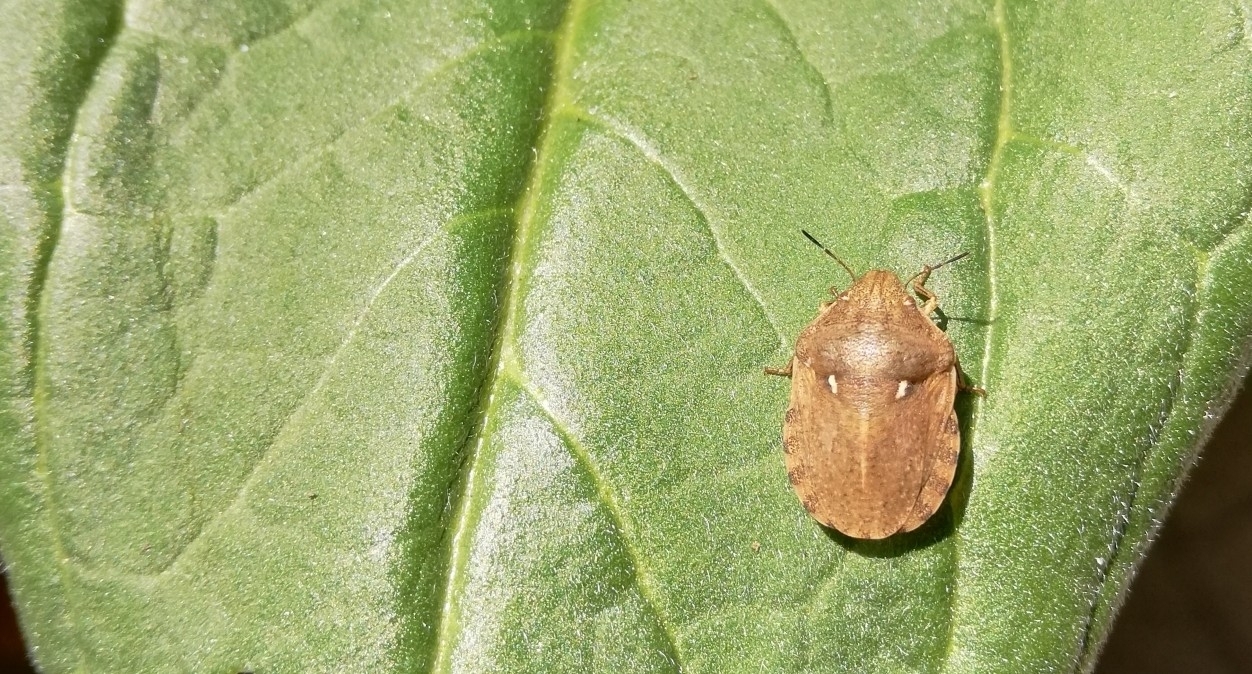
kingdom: Animalia
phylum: Arthropoda
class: Insecta
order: Hemiptera
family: Scutelleridae
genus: Eurygaster
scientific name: Eurygaster maura
